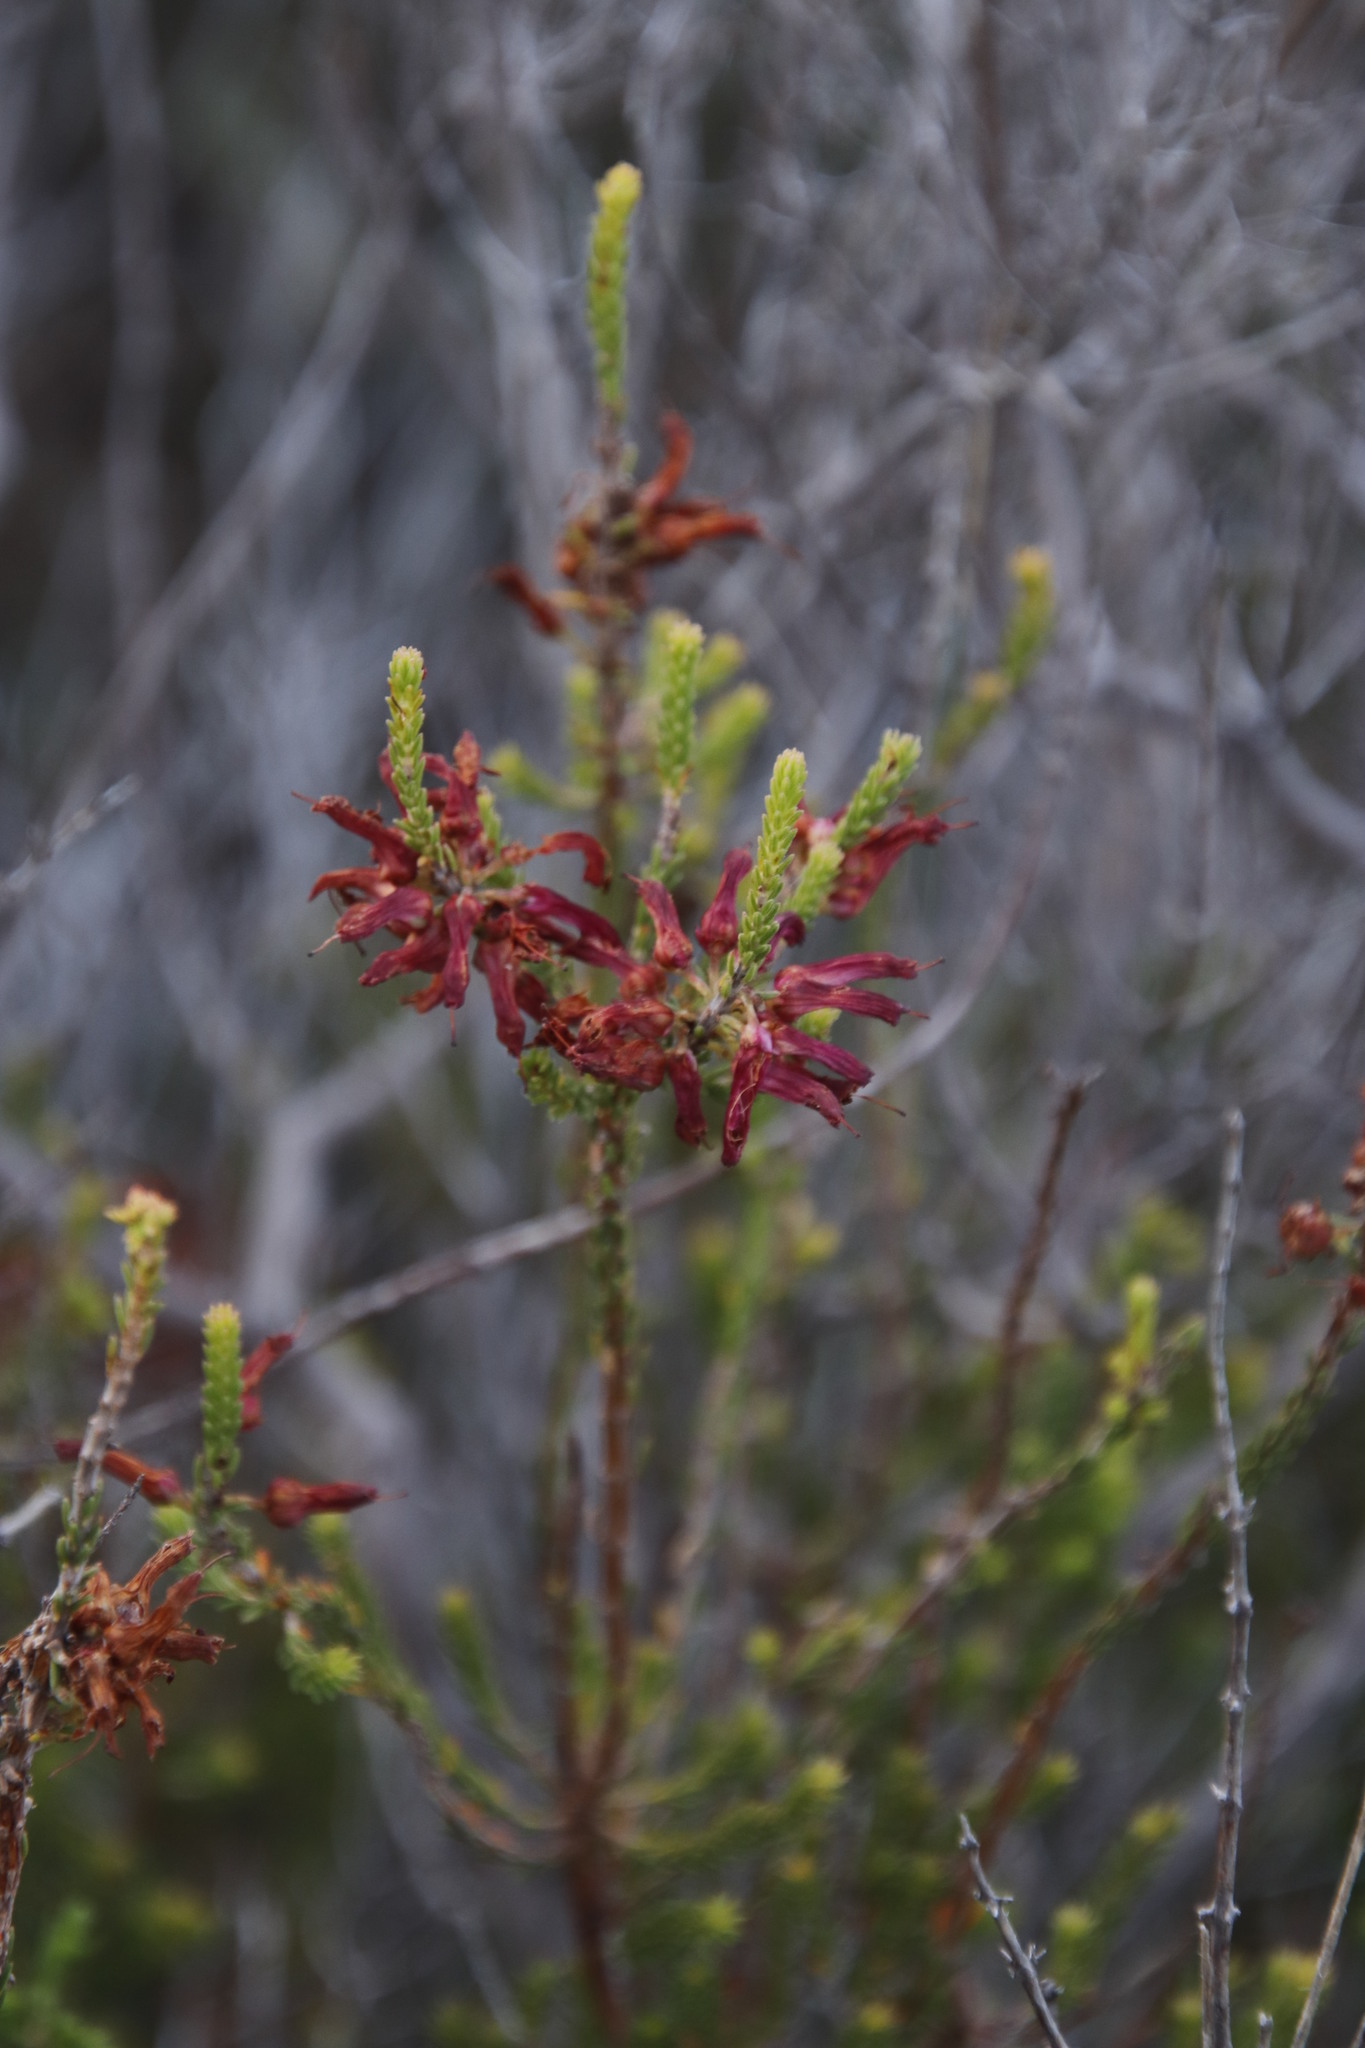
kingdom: Plantae
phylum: Tracheophyta
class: Magnoliopsida
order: Ericales
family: Ericaceae
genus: Erica
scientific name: Erica mammosa
